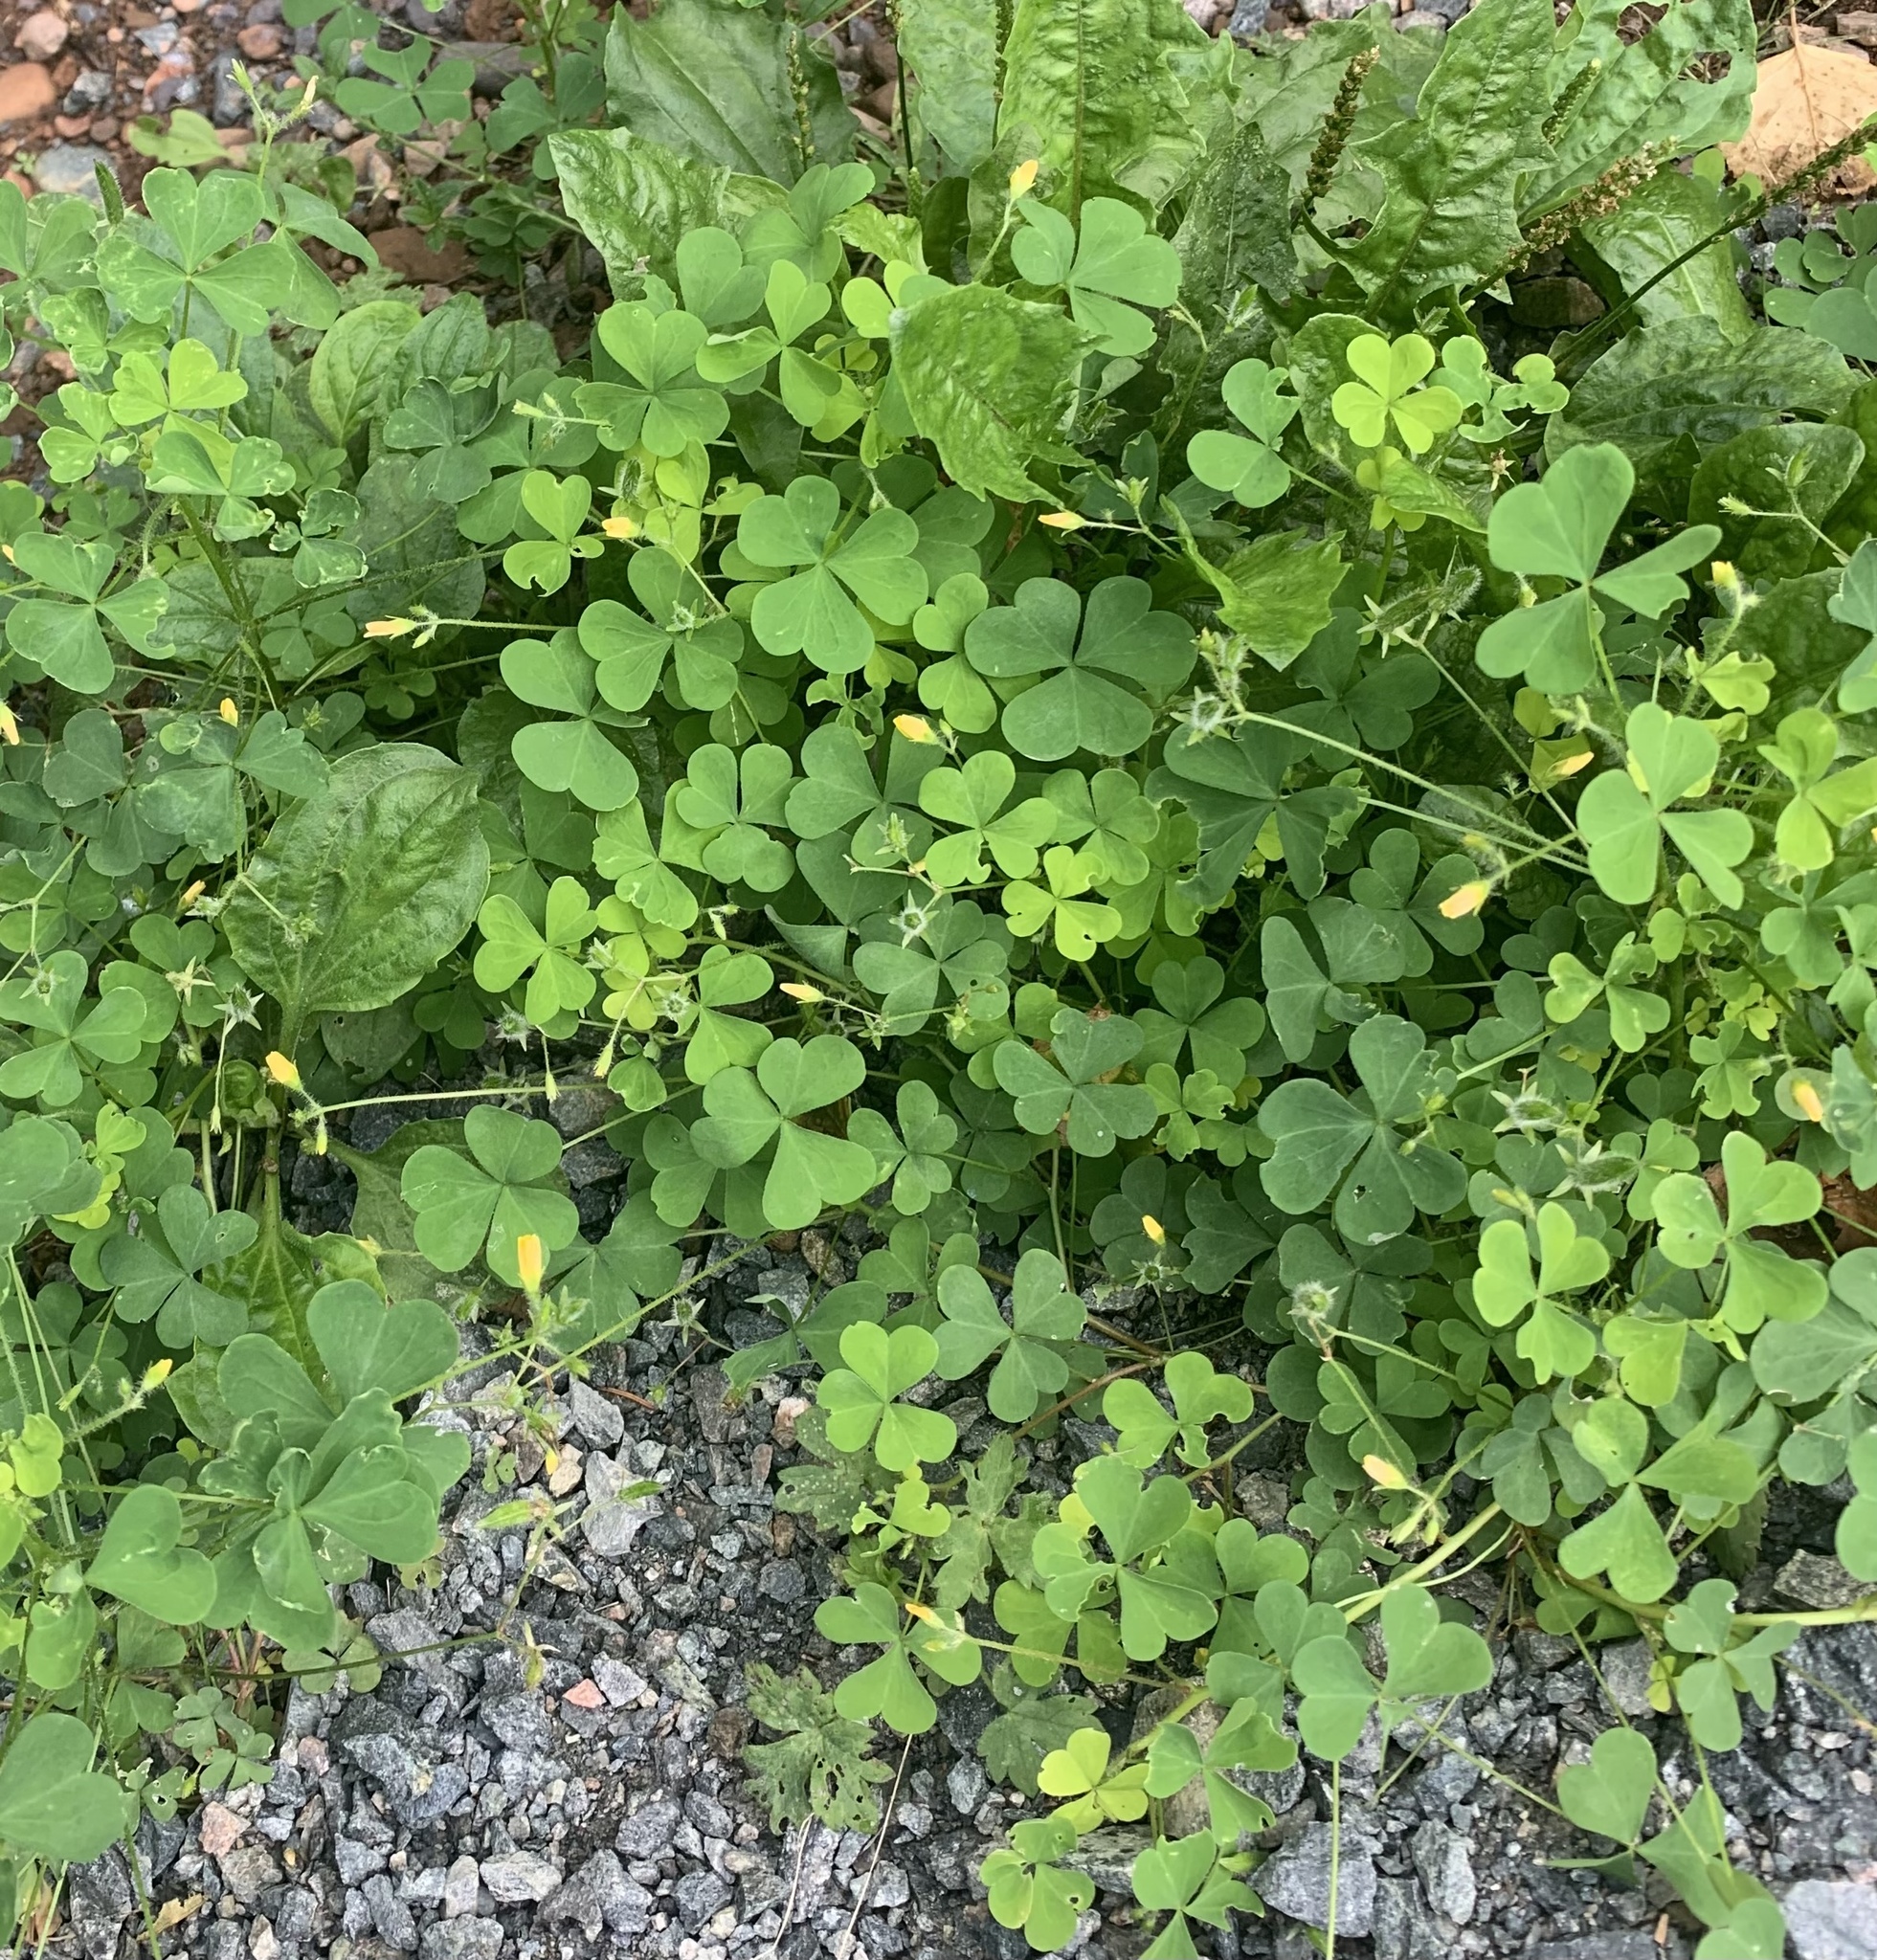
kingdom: Plantae
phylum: Tracheophyta
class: Magnoliopsida
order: Oxalidales
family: Oxalidaceae
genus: Oxalis
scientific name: Oxalis stricta
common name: Upright yellow-sorrel
